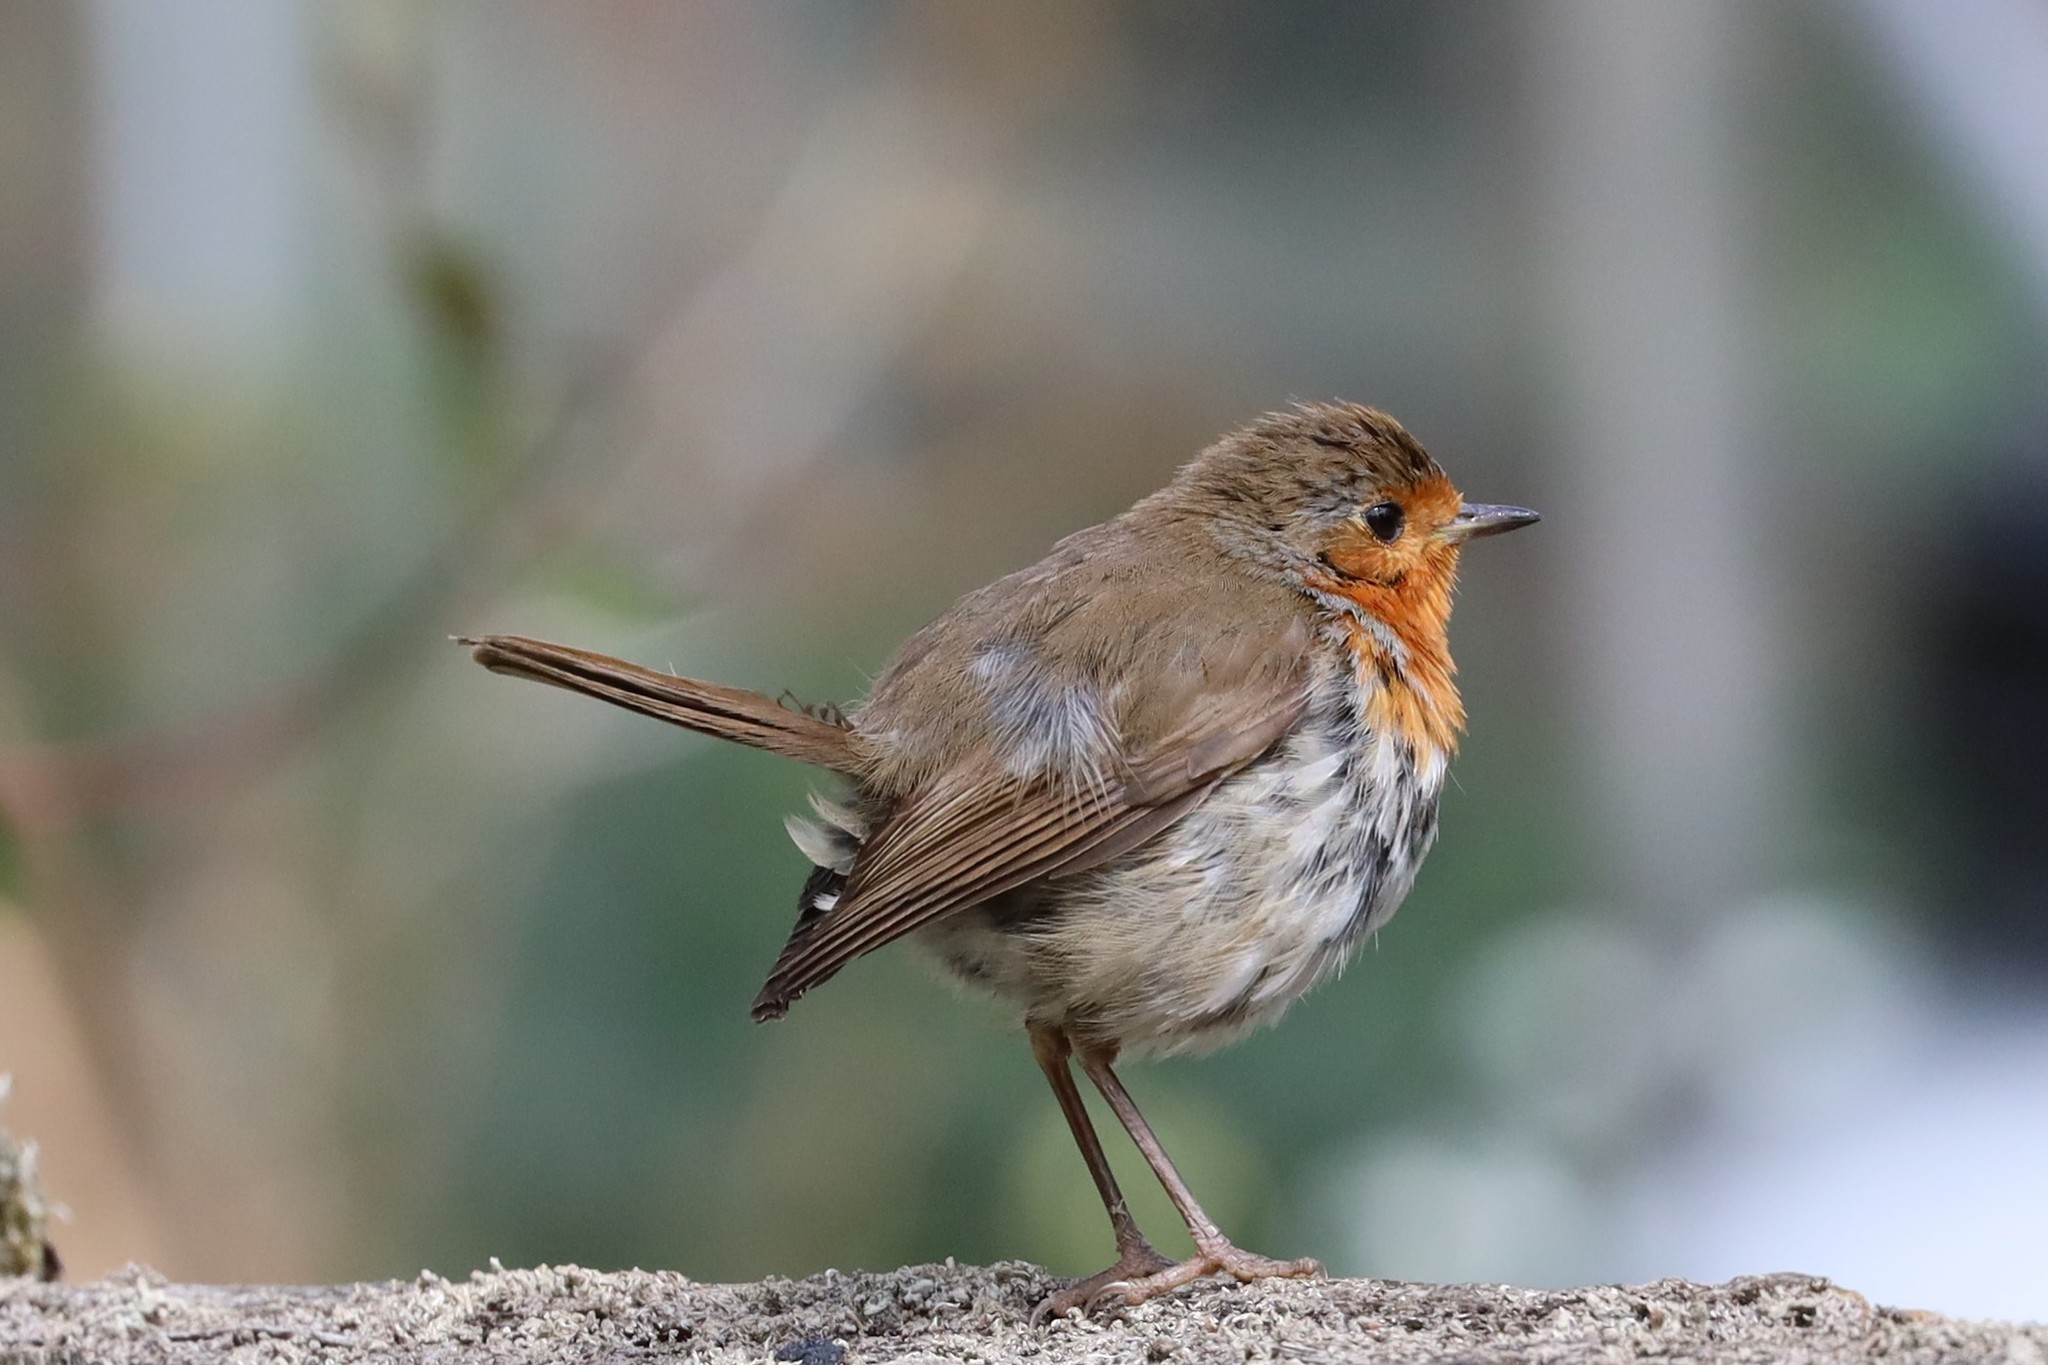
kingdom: Animalia
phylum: Chordata
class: Aves
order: Passeriformes
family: Muscicapidae
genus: Erithacus
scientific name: Erithacus rubecula
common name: European robin
